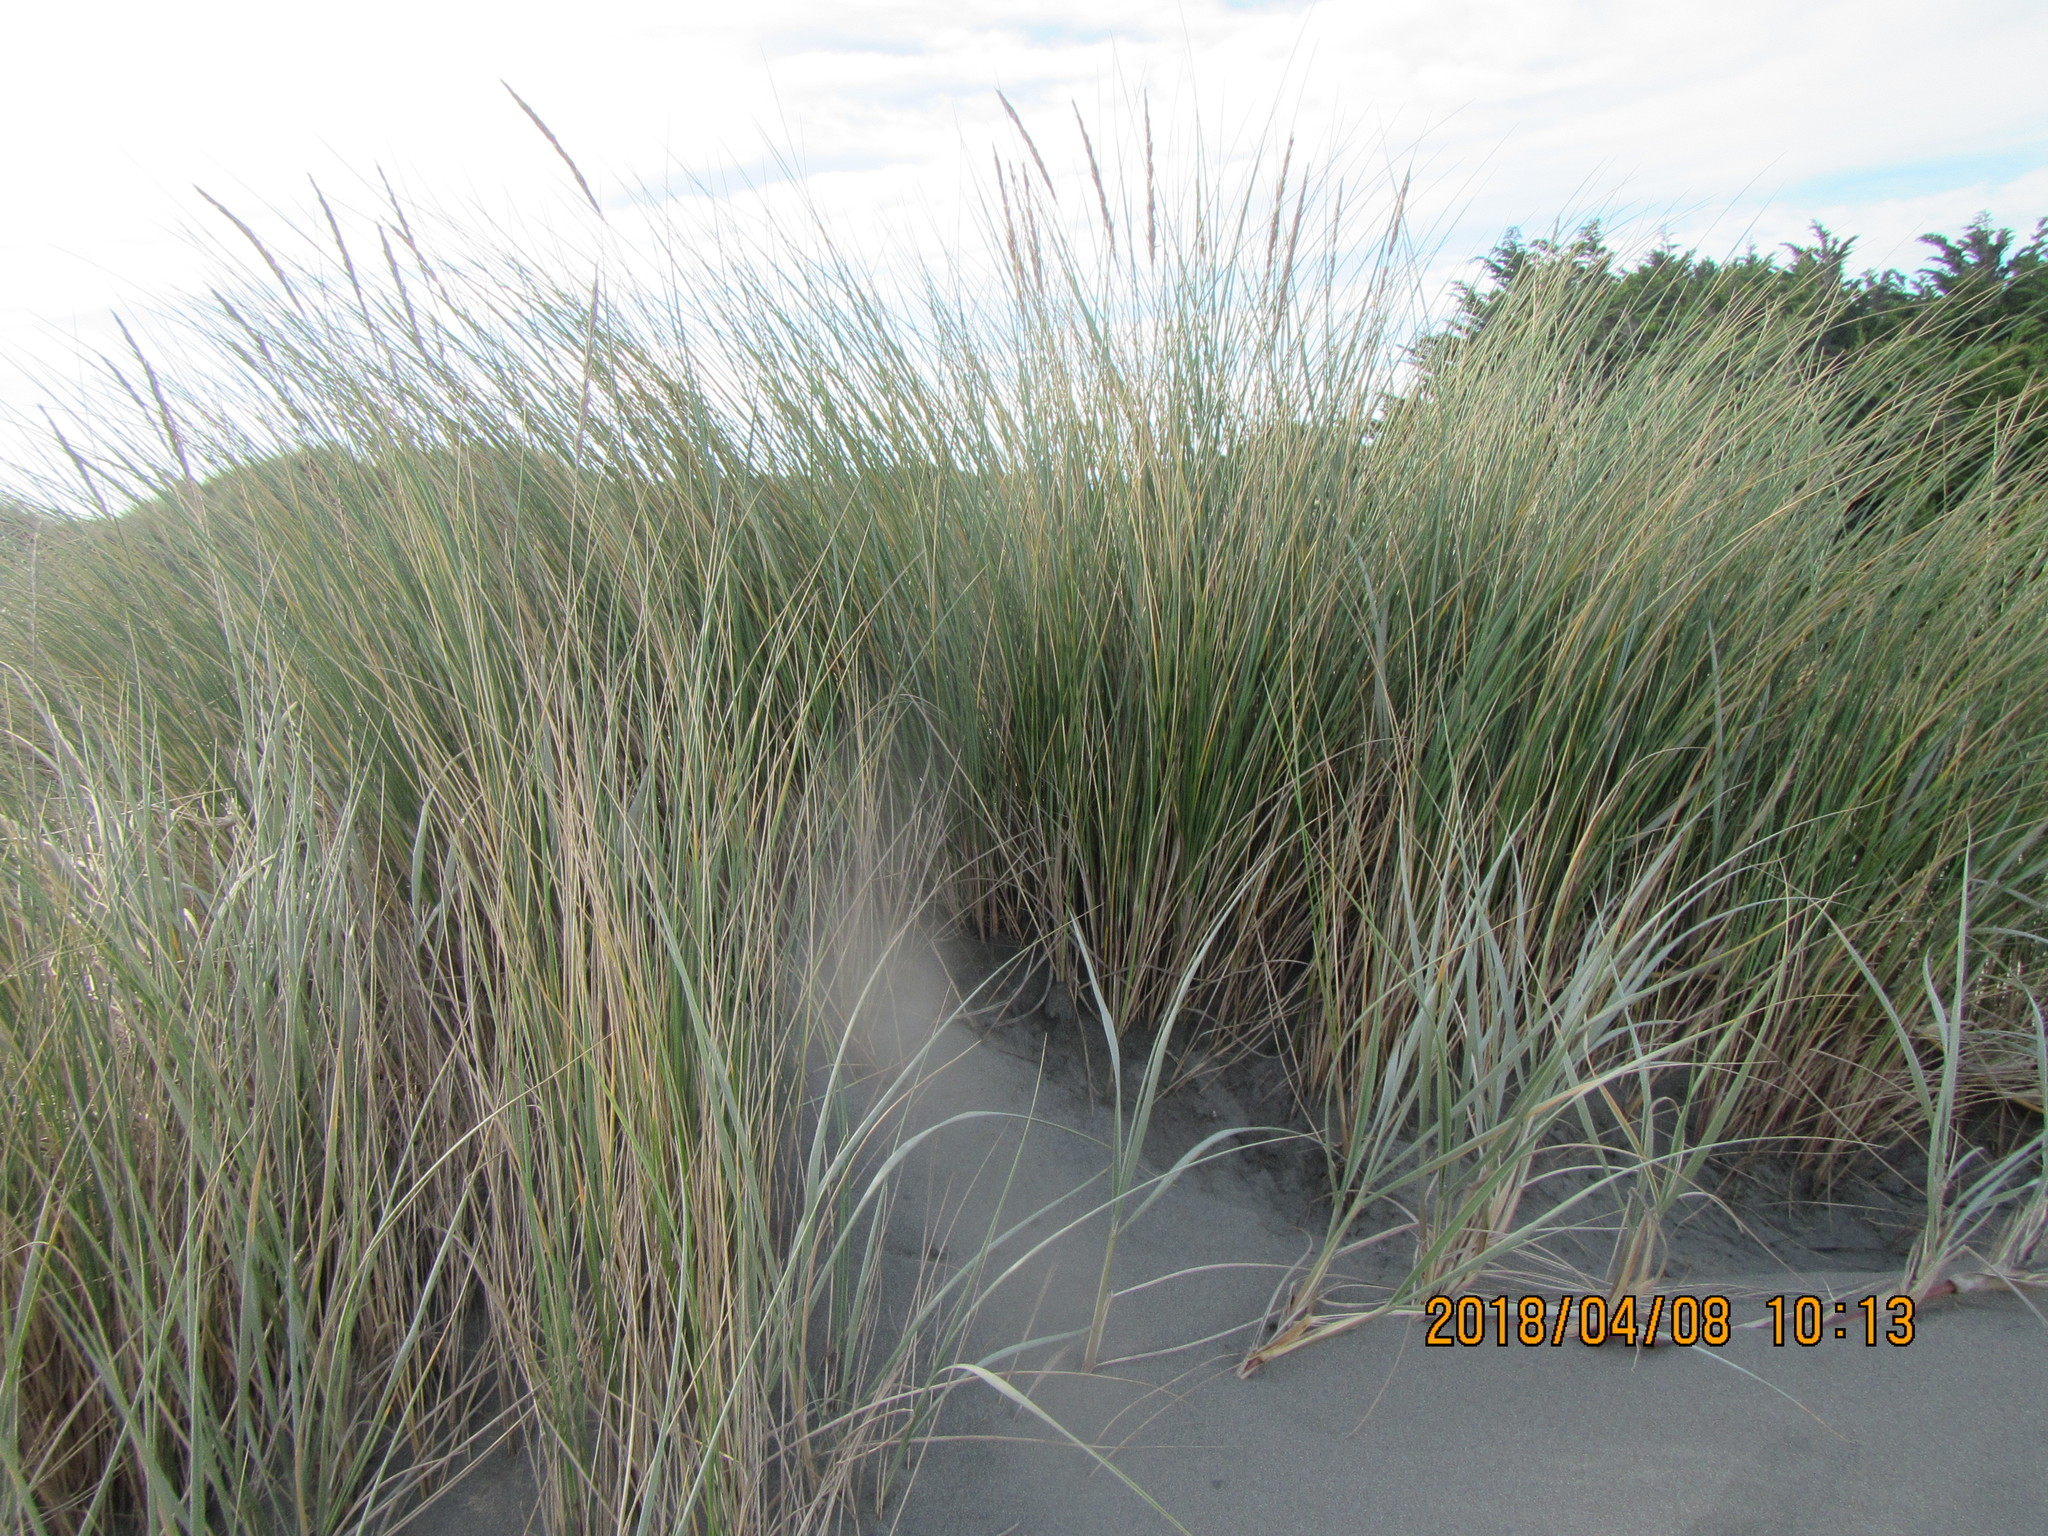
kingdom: Plantae
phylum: Tracheophyta
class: Liliopsida
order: Poales
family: Poaceae
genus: Calamagrostis
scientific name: Calamagrostis arenaria
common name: European beachgrass
